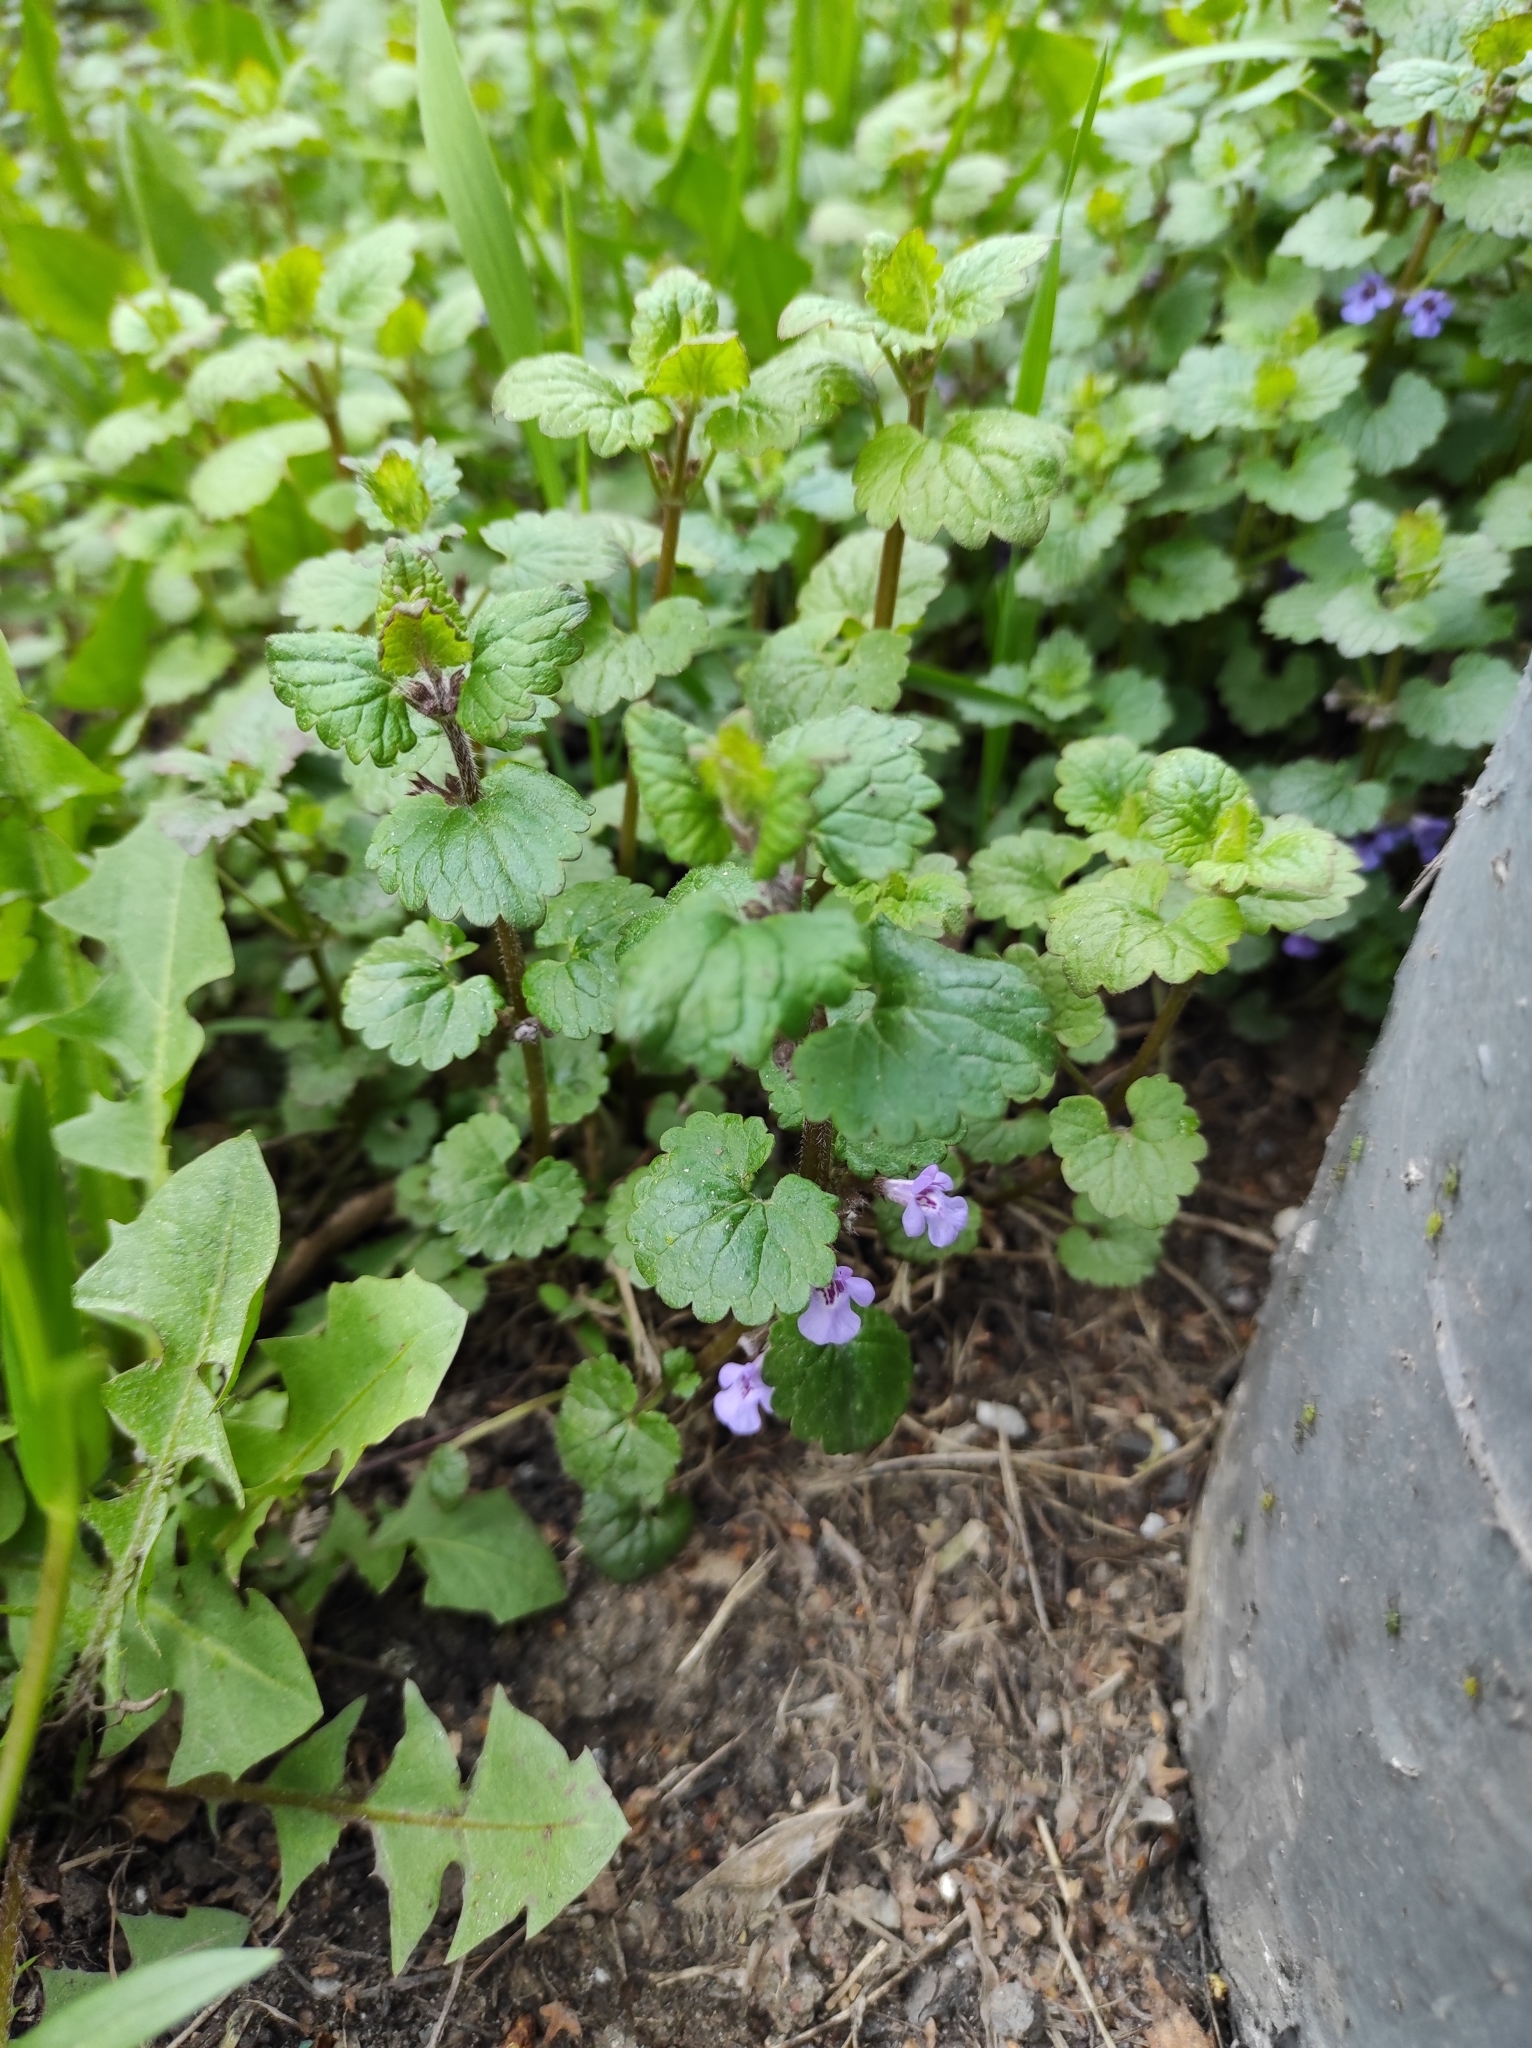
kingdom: Plantae
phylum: Tracheophyta
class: Magnoliopsida
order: Lamiales
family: Lamiaceae
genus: Glechoma
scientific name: Glechoma hederacea
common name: Ground ivy
